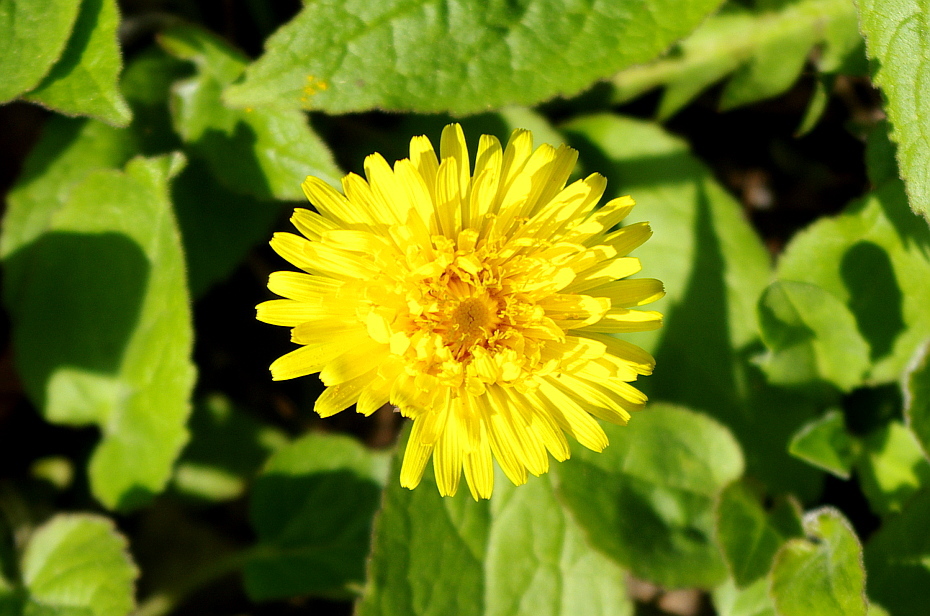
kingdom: Plantae
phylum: Tracheophyta
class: Magnoliopsida
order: Asterales
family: Asteraceae
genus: Taraxacum
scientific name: Taraxacum officinale
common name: Common dandelion
